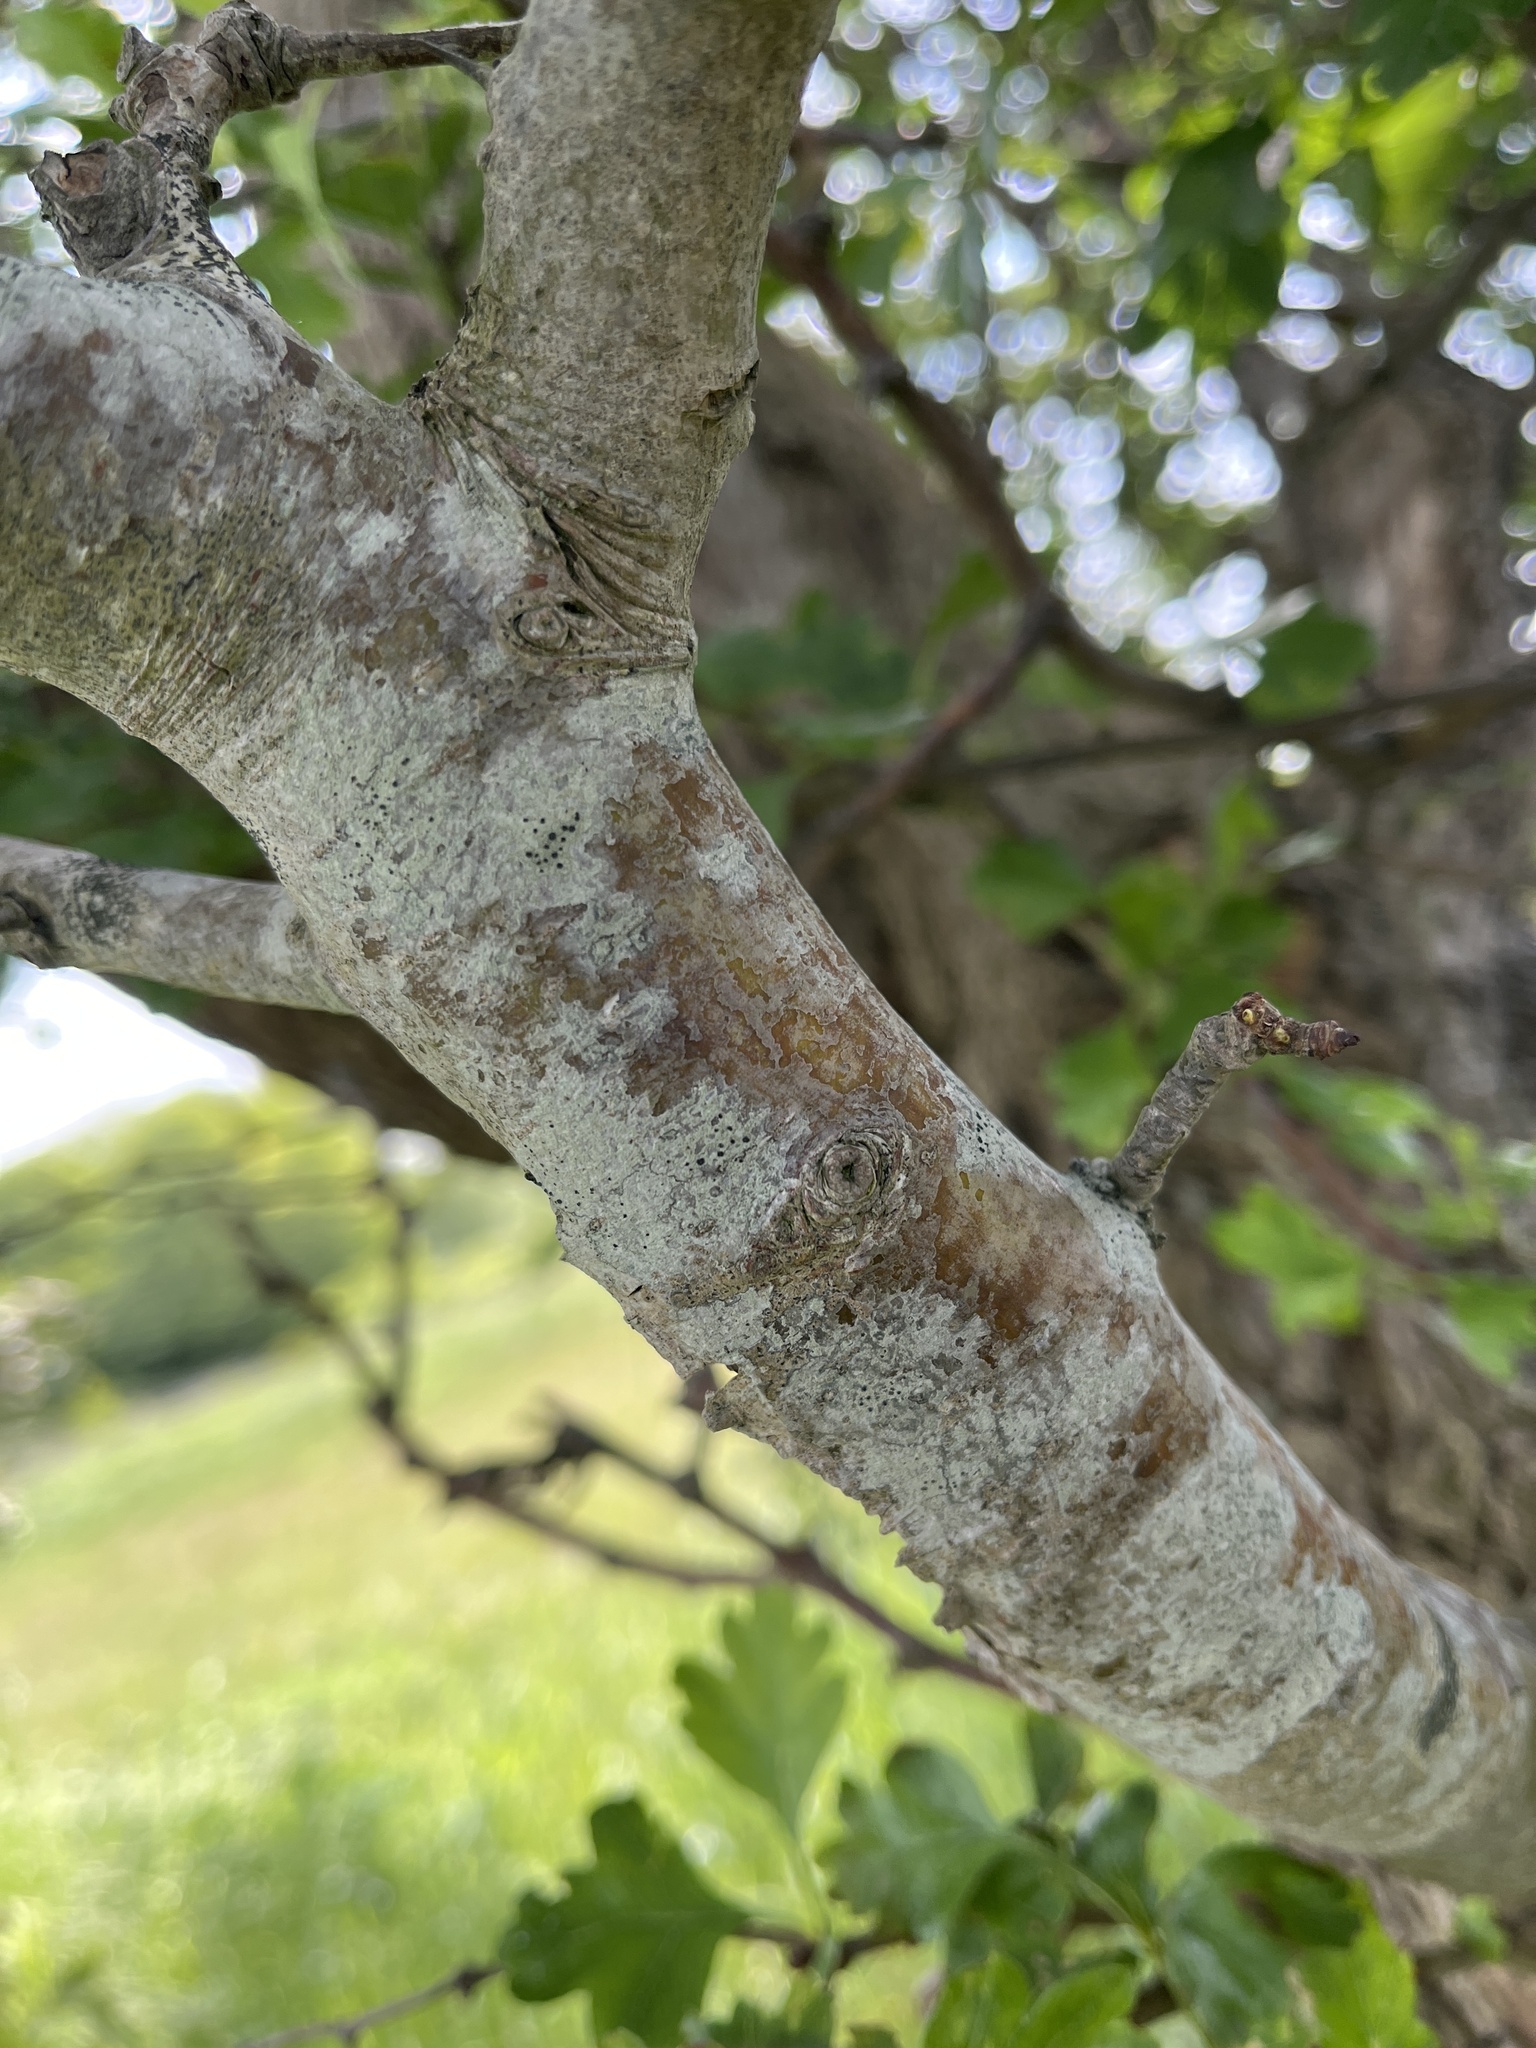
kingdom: Fungi
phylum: Ascomycota
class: Lecanoromycetes
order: Lecanorales
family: Lecanoraceae
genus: Lecidella
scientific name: Lecidella elaeochroma
